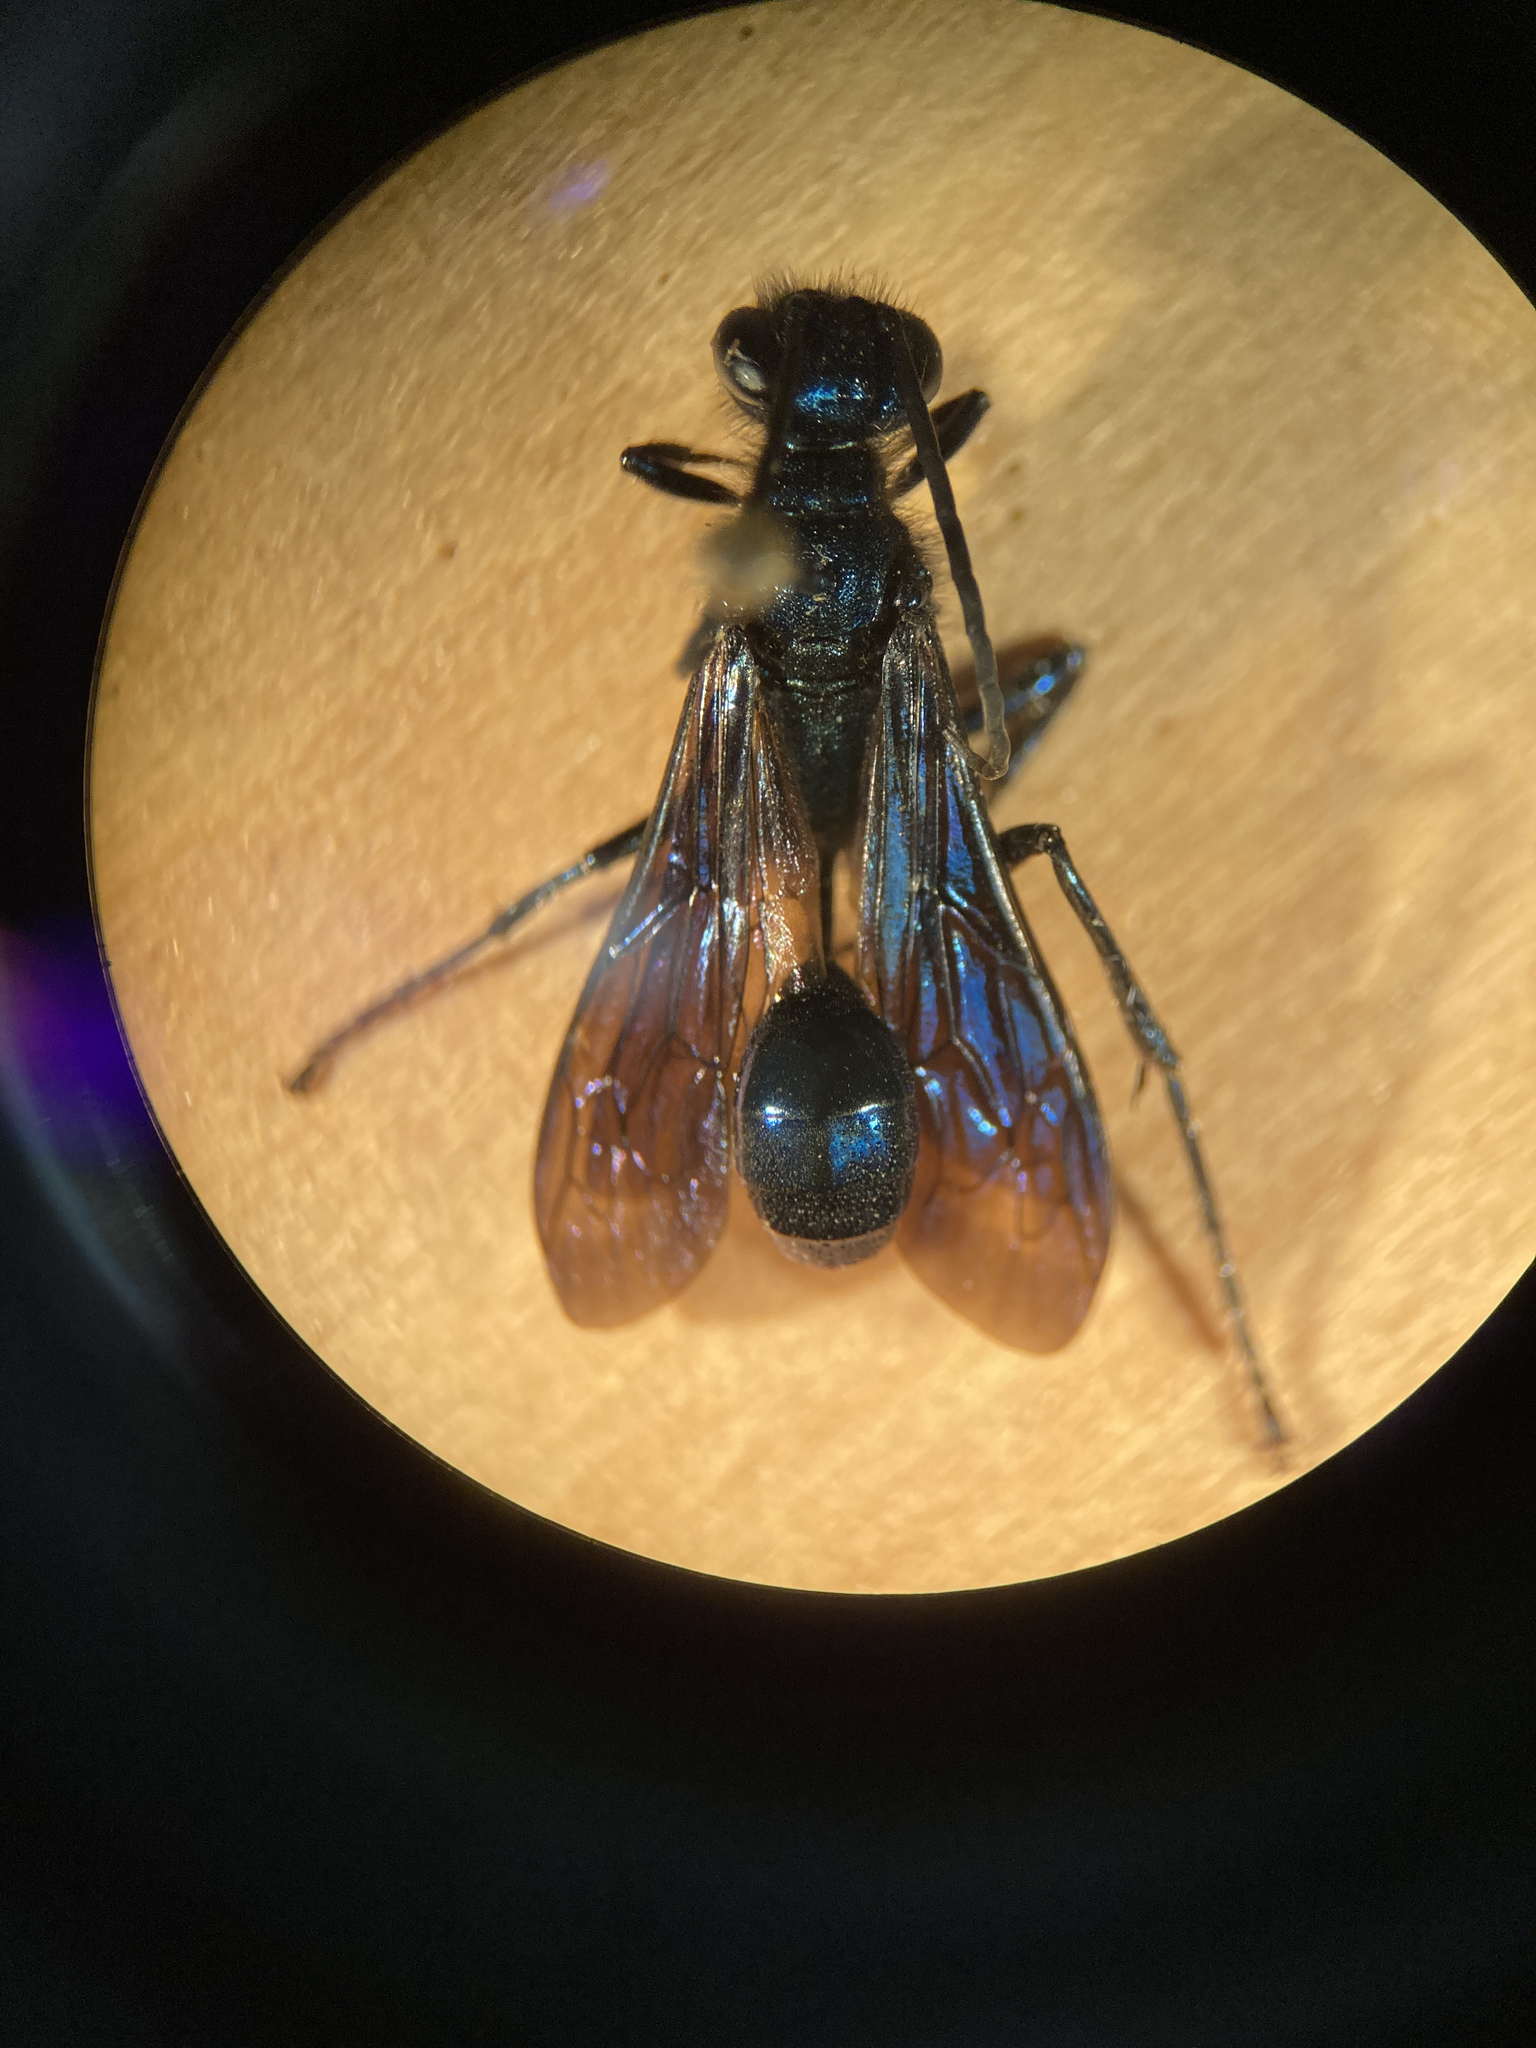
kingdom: Animalia
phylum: Arthropoda
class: Insecta
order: Hymenoptera
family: Sphecidae
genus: Chalybion
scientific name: Chalybion californicum
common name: Mud dauber
